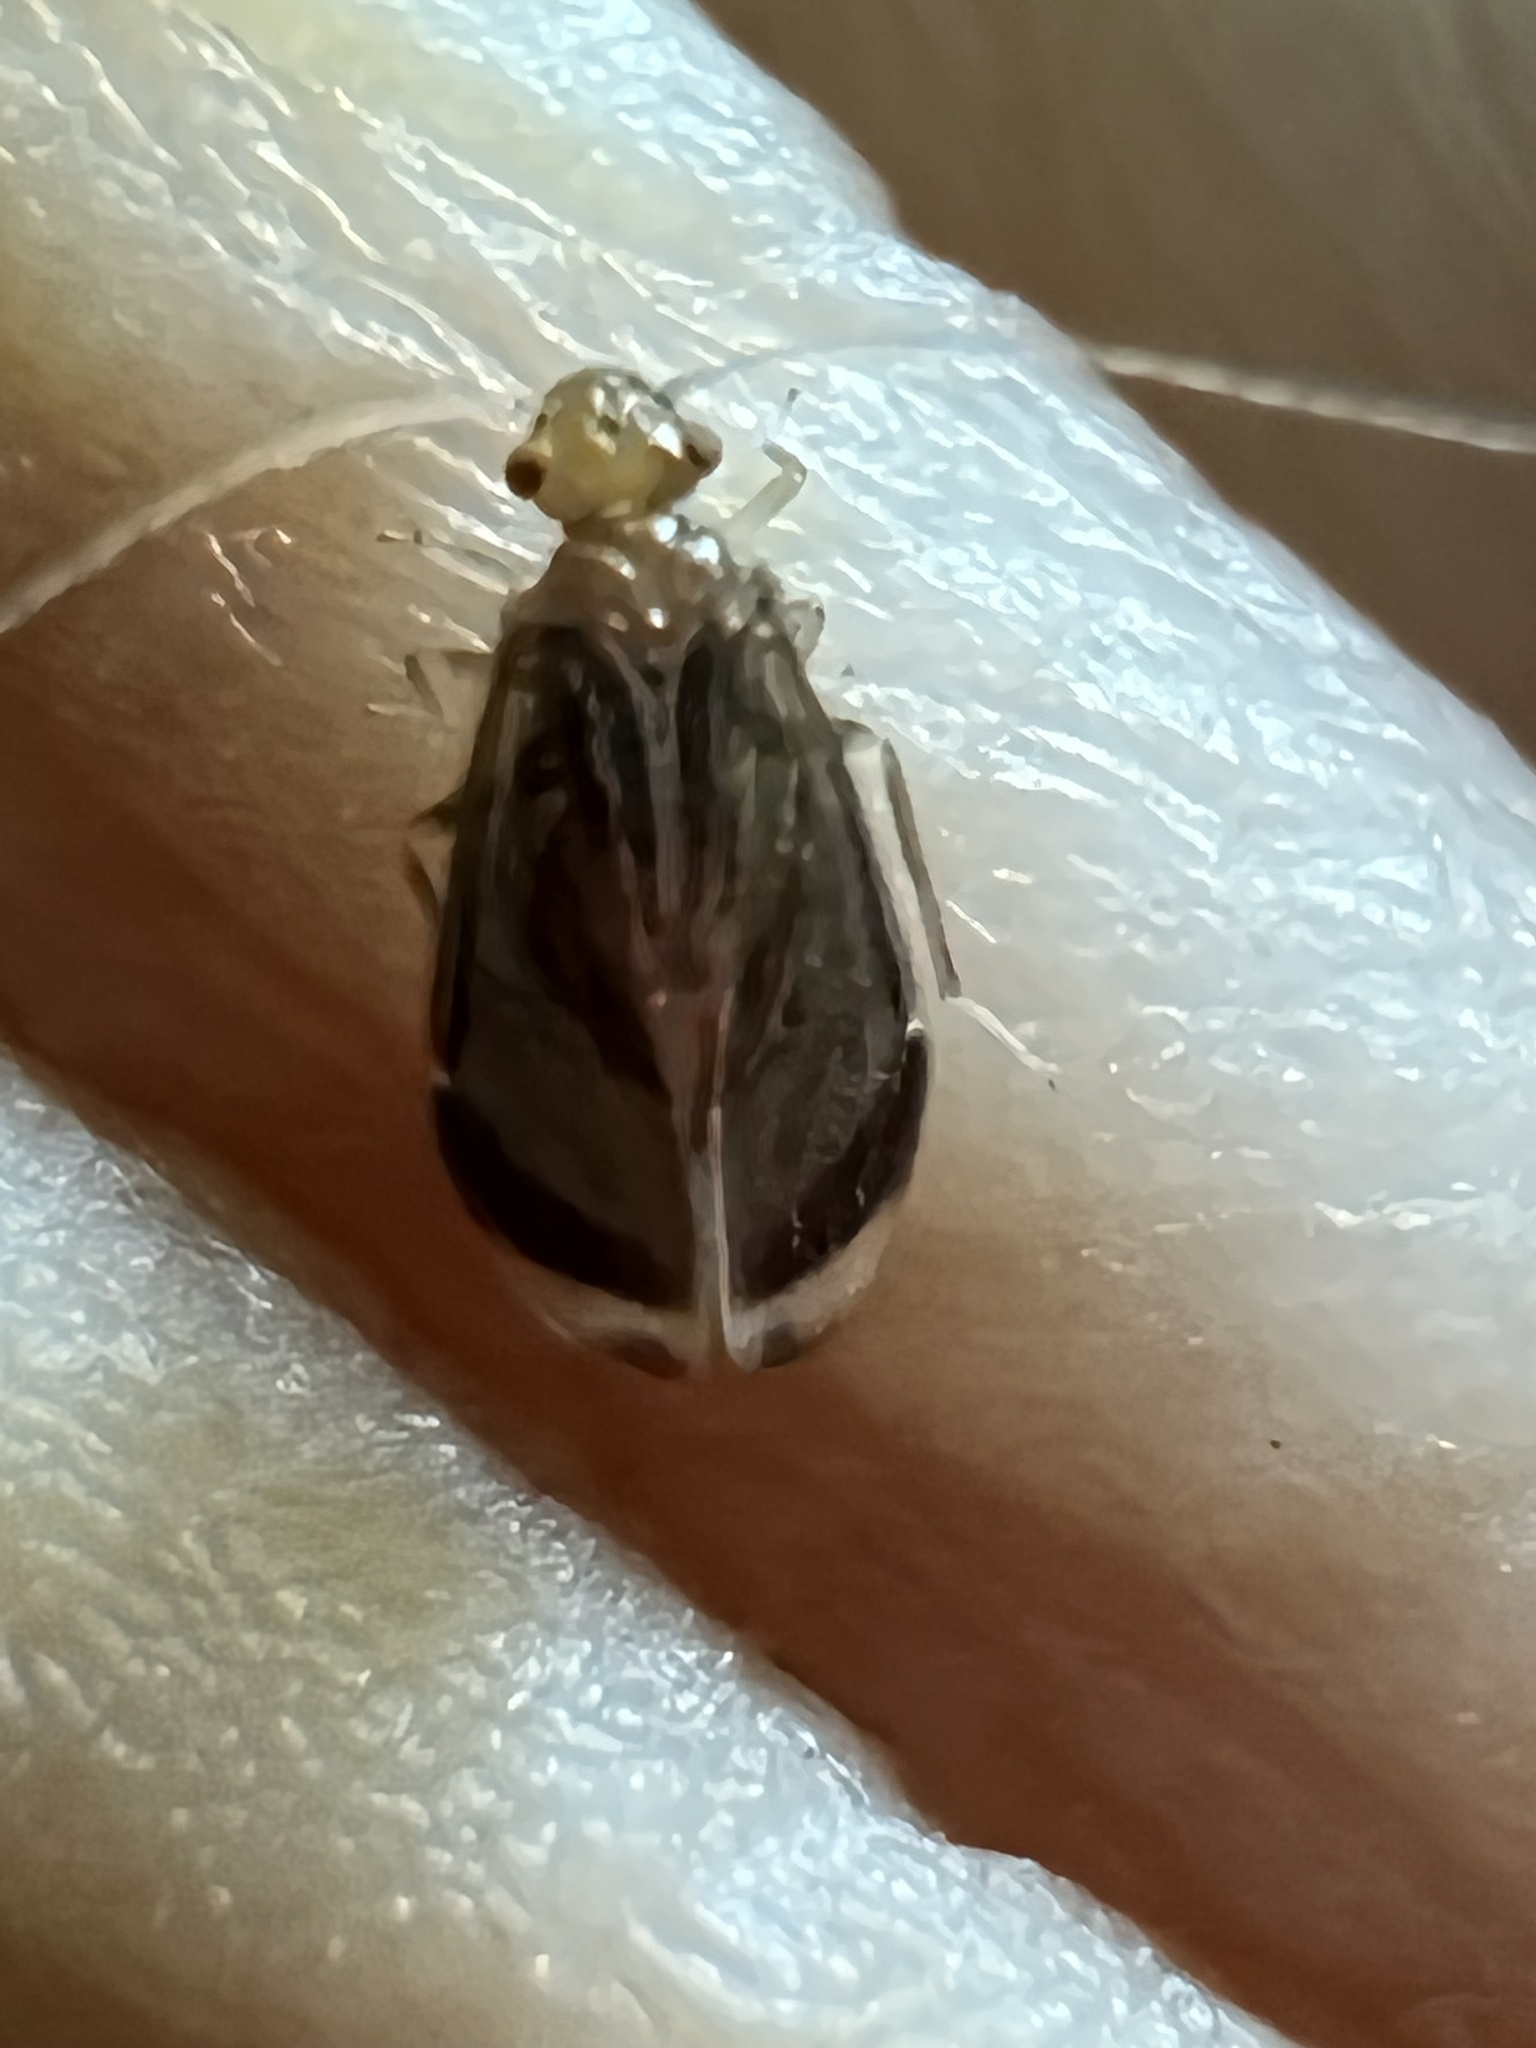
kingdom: Animalia
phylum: Arthropoda
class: Insecta
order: Psocodea
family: Amphipsocidae
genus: Polypsocus
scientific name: Polypsocus corruptus
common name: Corrupt barklouse
